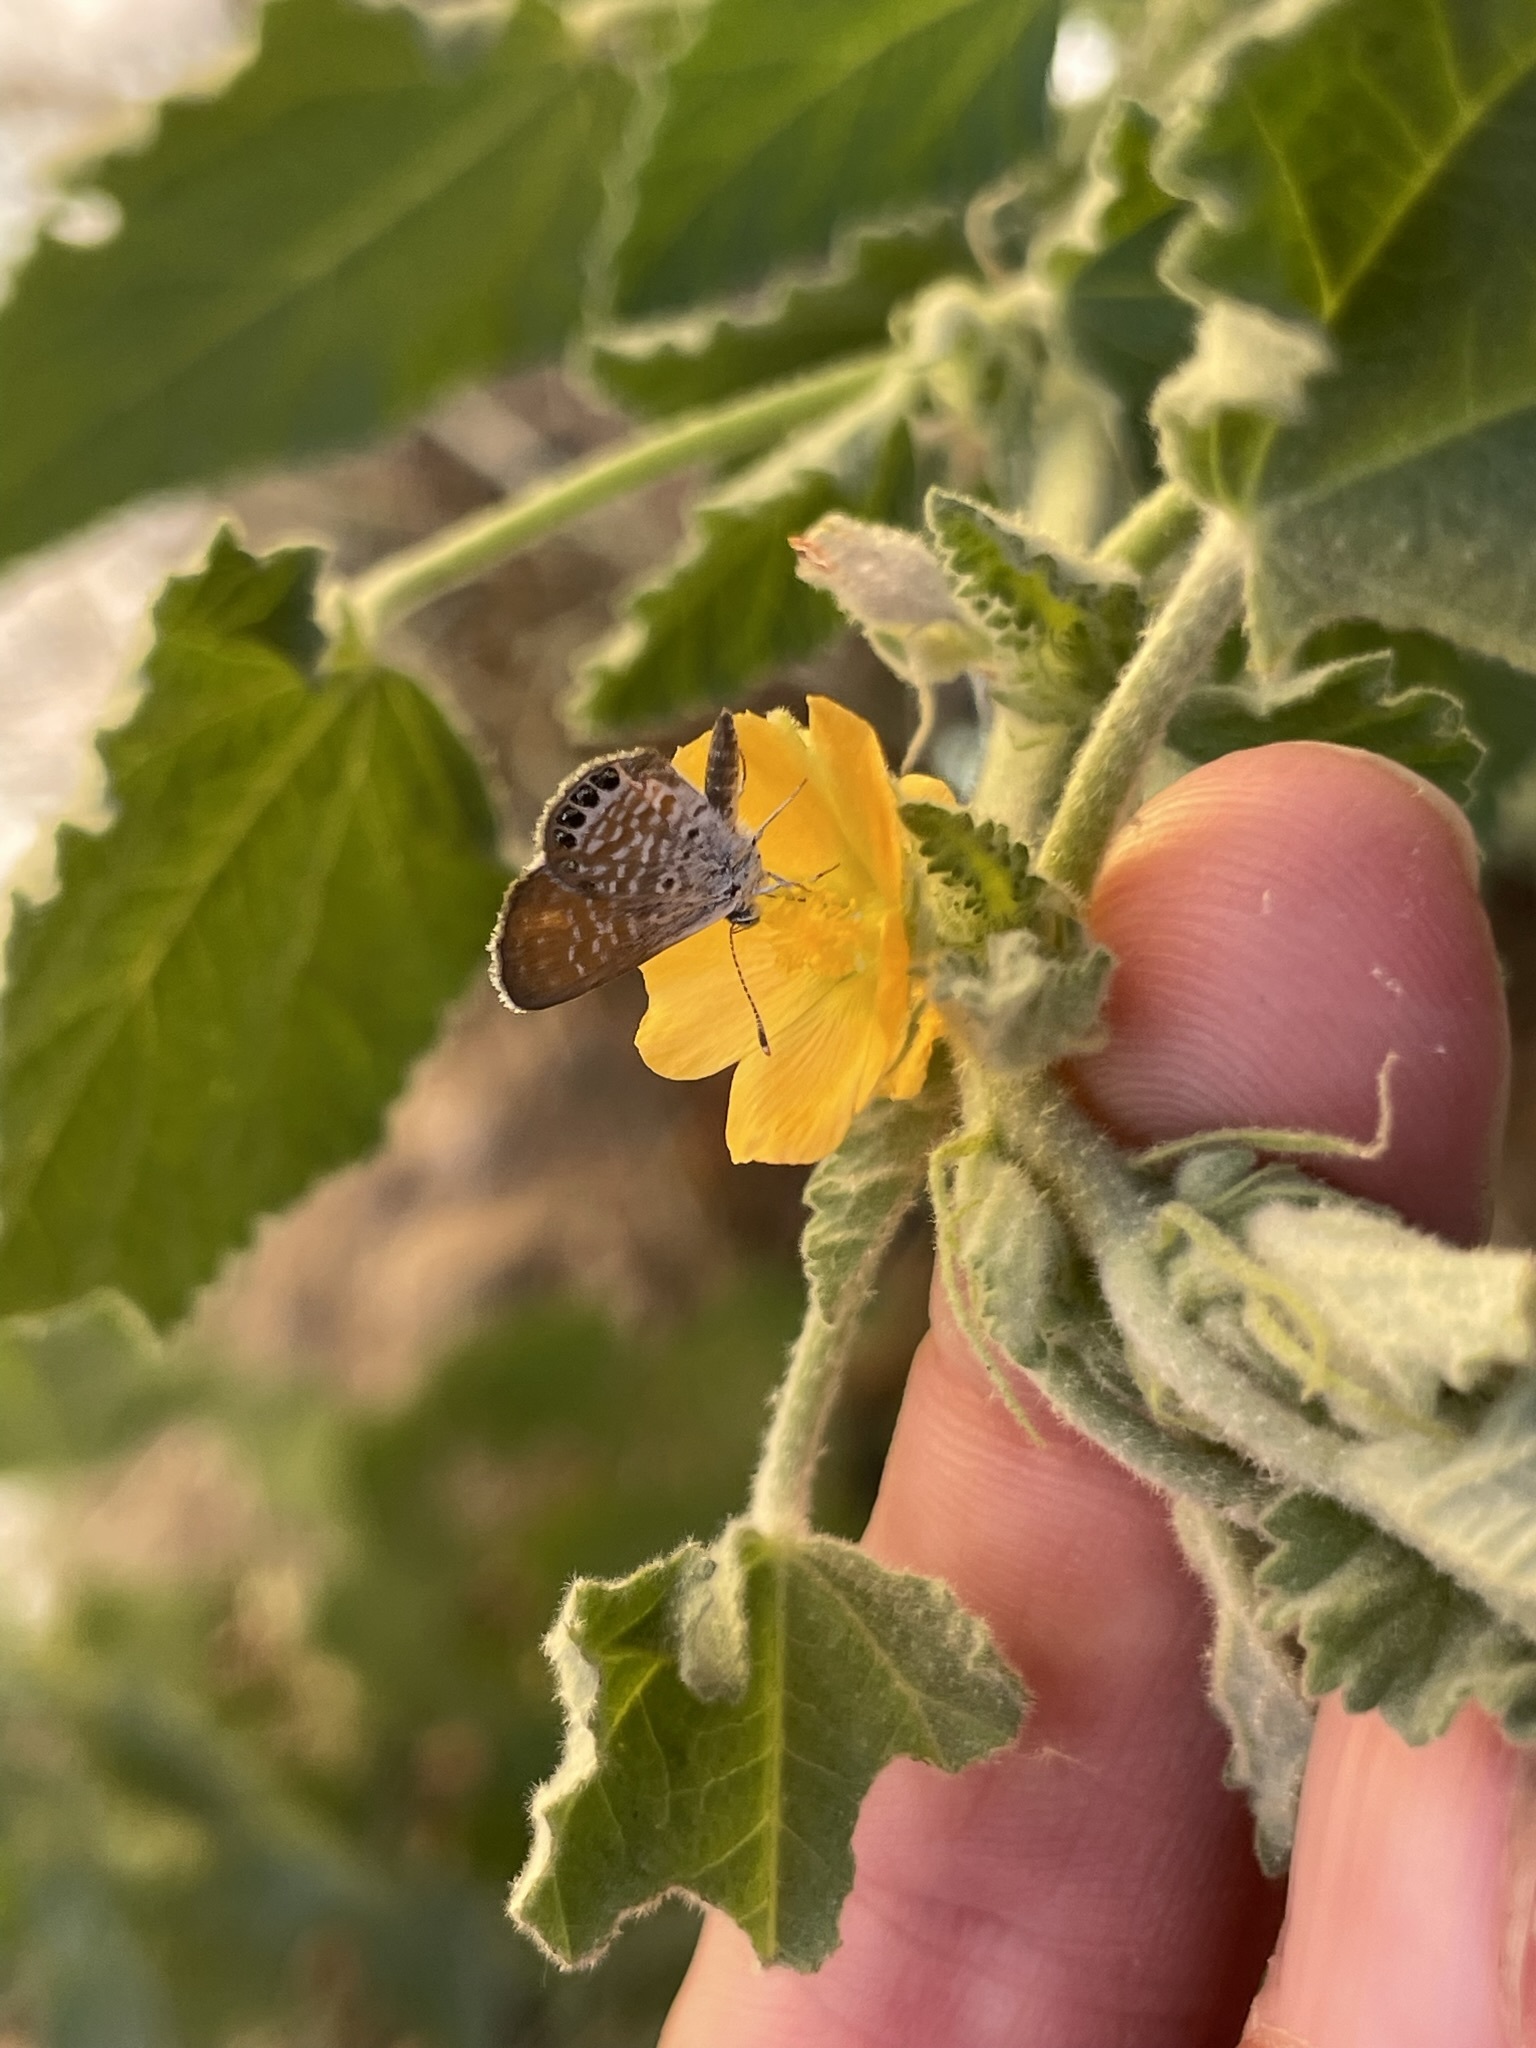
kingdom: Animalia
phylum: Arthropoda
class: Insecta
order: Lepidoptera
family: Lycaenidae
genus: Brephidium
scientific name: Brephidium exilis
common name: Pygmy blue
